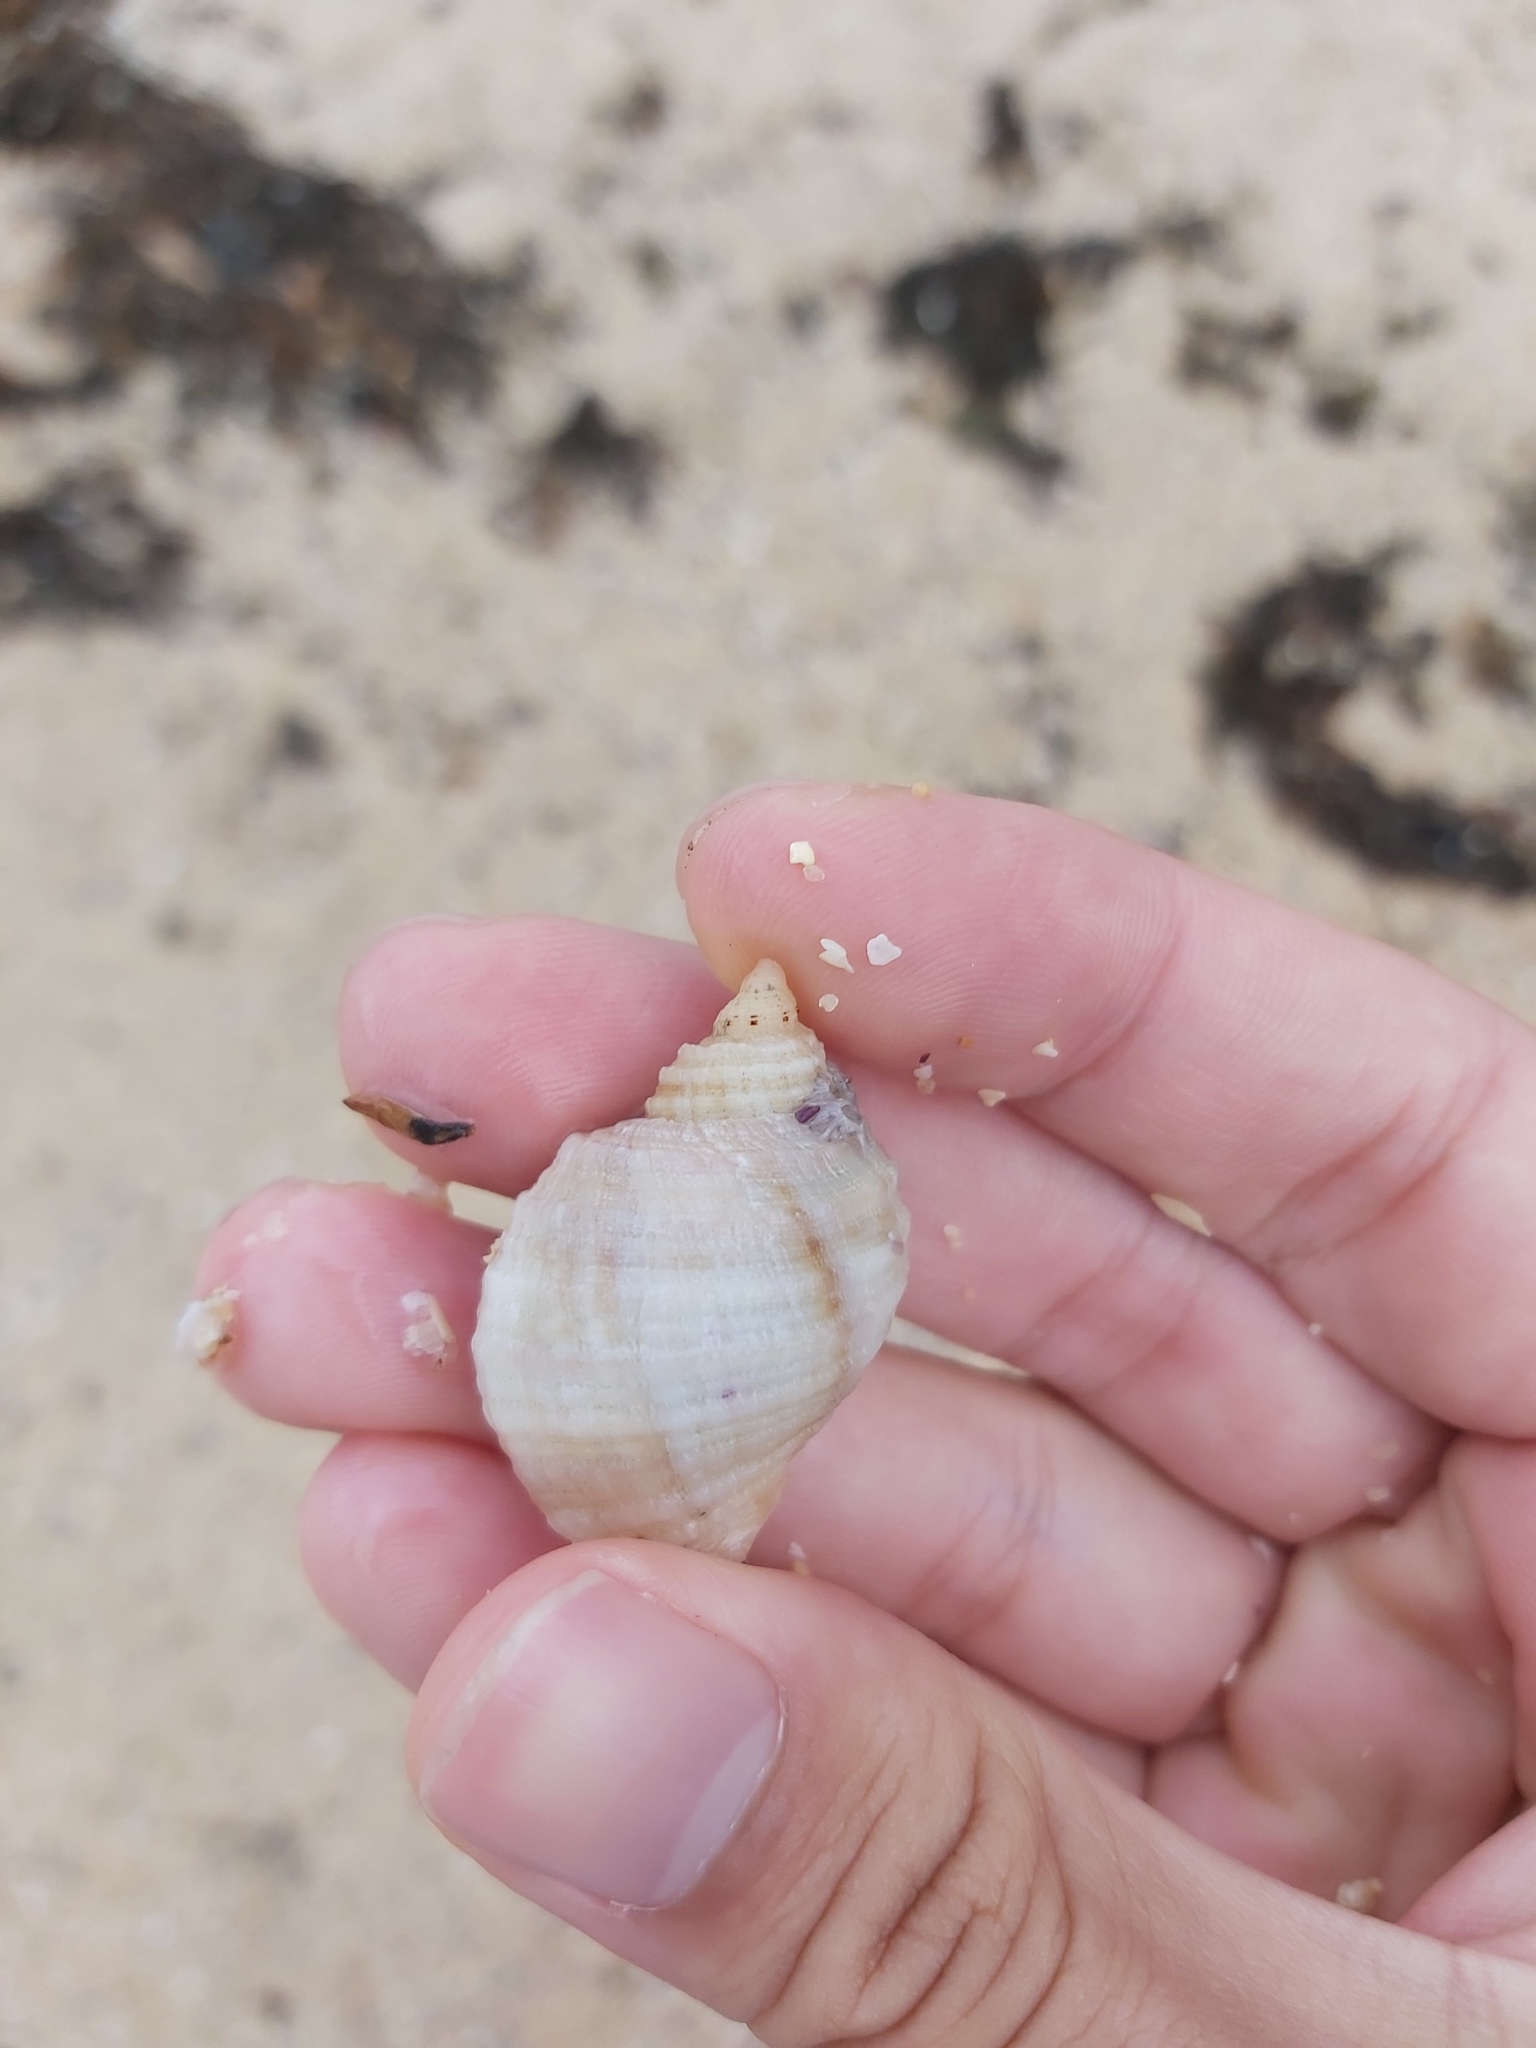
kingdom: Animalia
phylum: Mollusca
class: Gastropoda
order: Neogastropoda
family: Muricidae
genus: Dicathais
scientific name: Dicathais orbita
